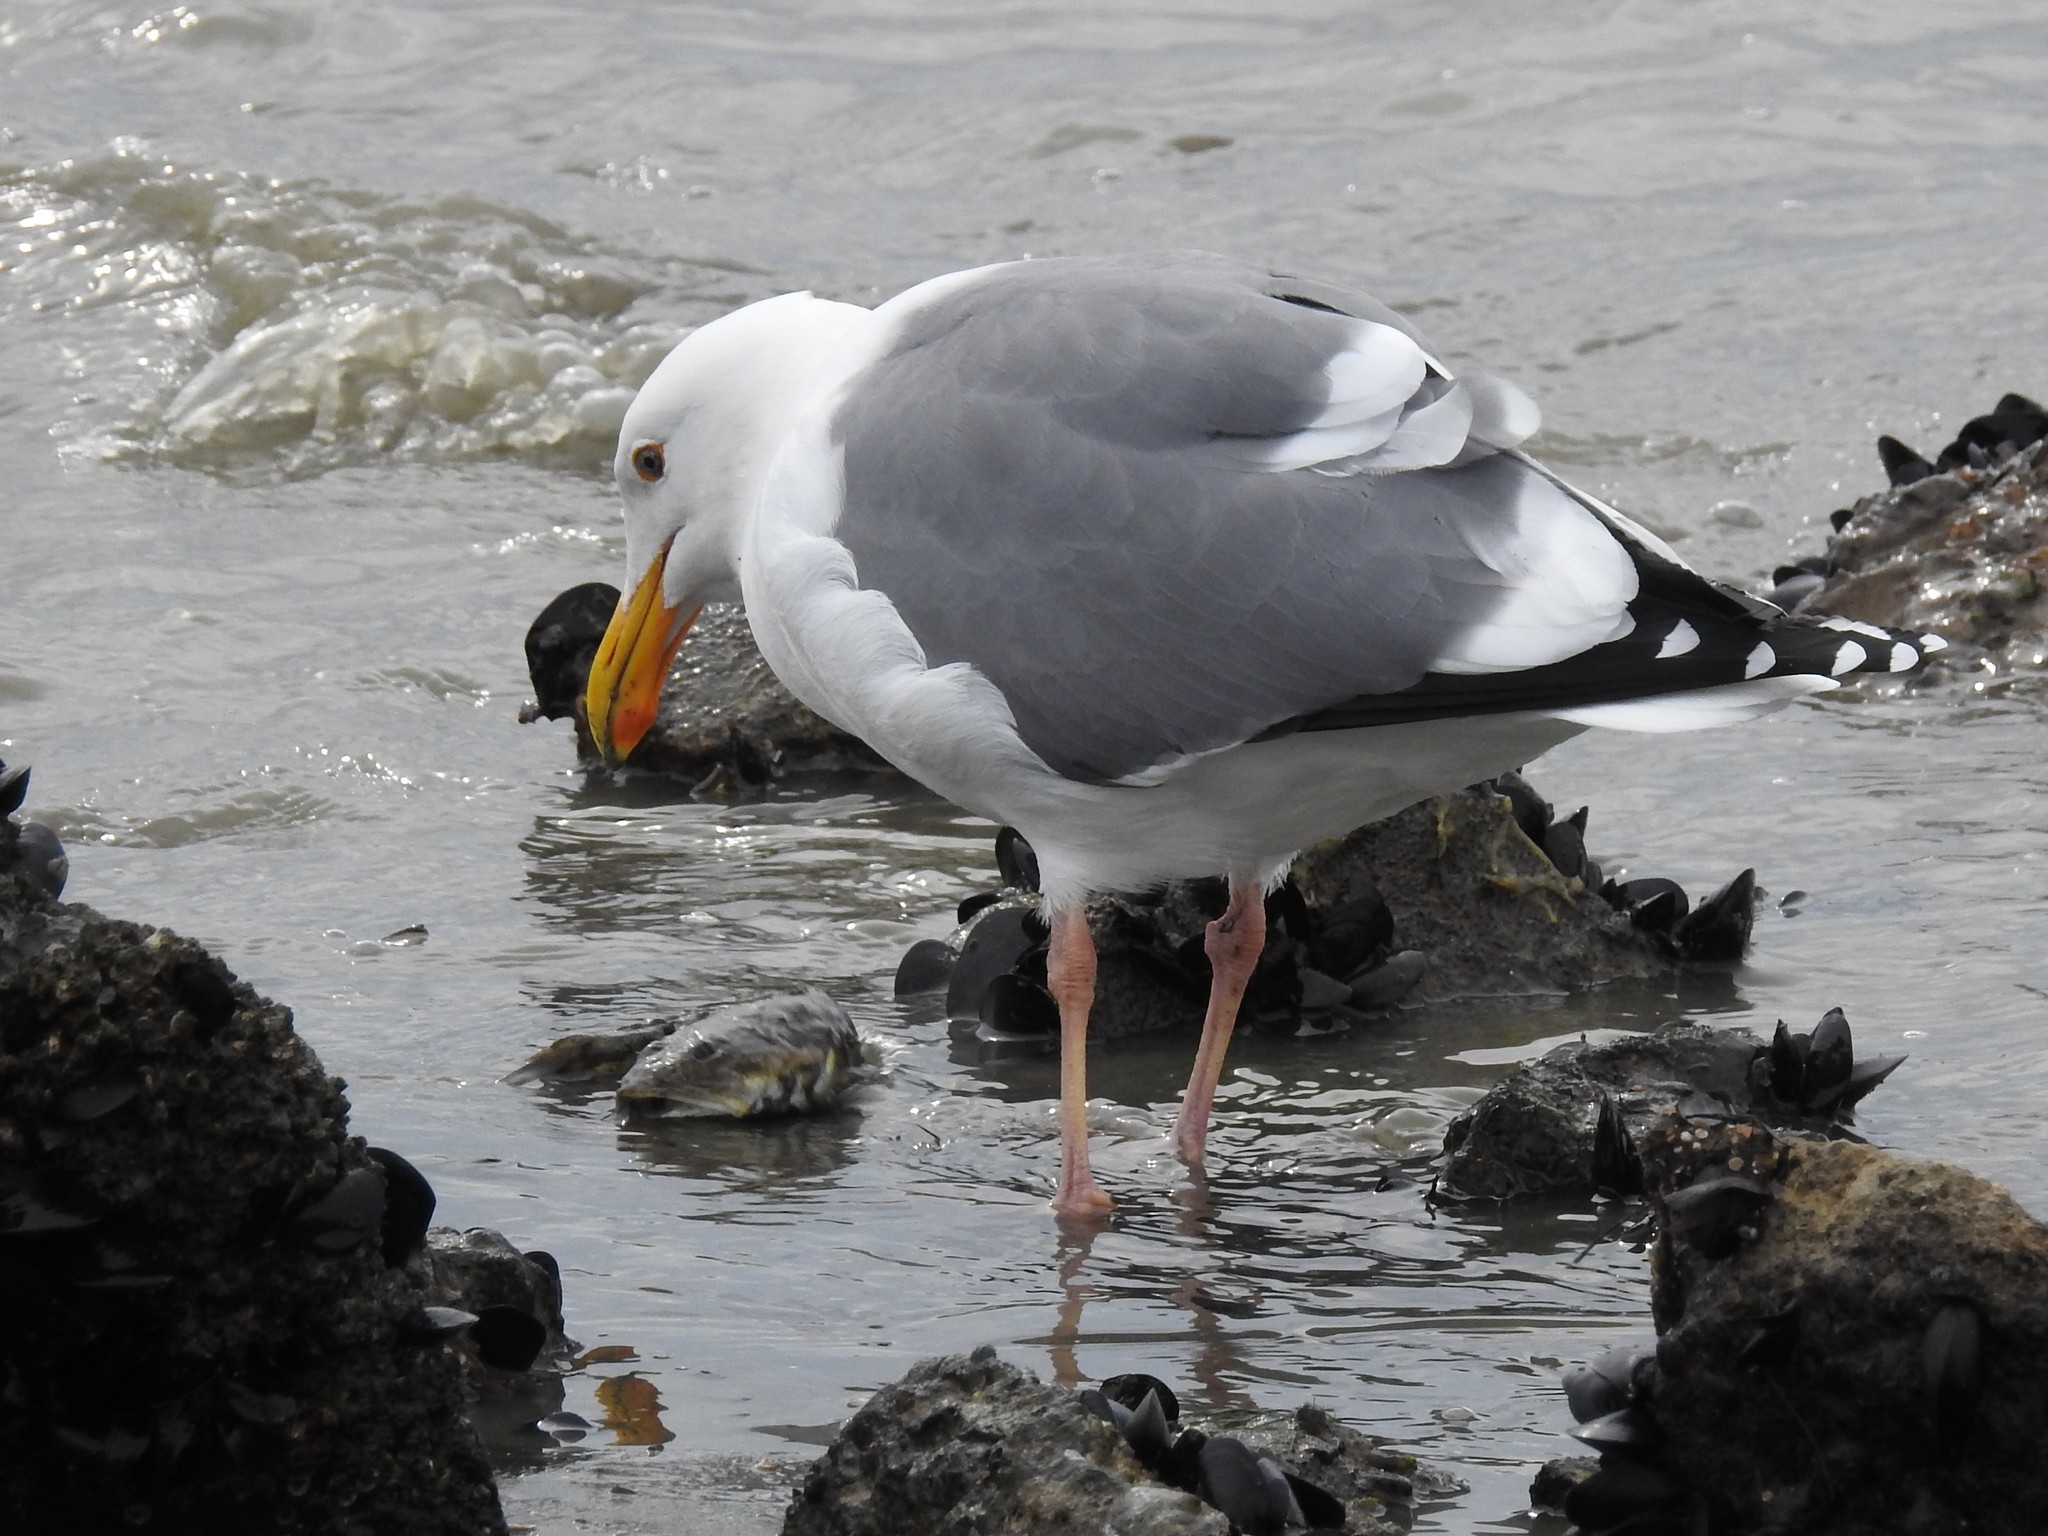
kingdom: Animalia
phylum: Chordata
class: Aves
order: Charadriiformes
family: Laridae
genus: Larus
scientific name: Larus occidentalis
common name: Western gull
